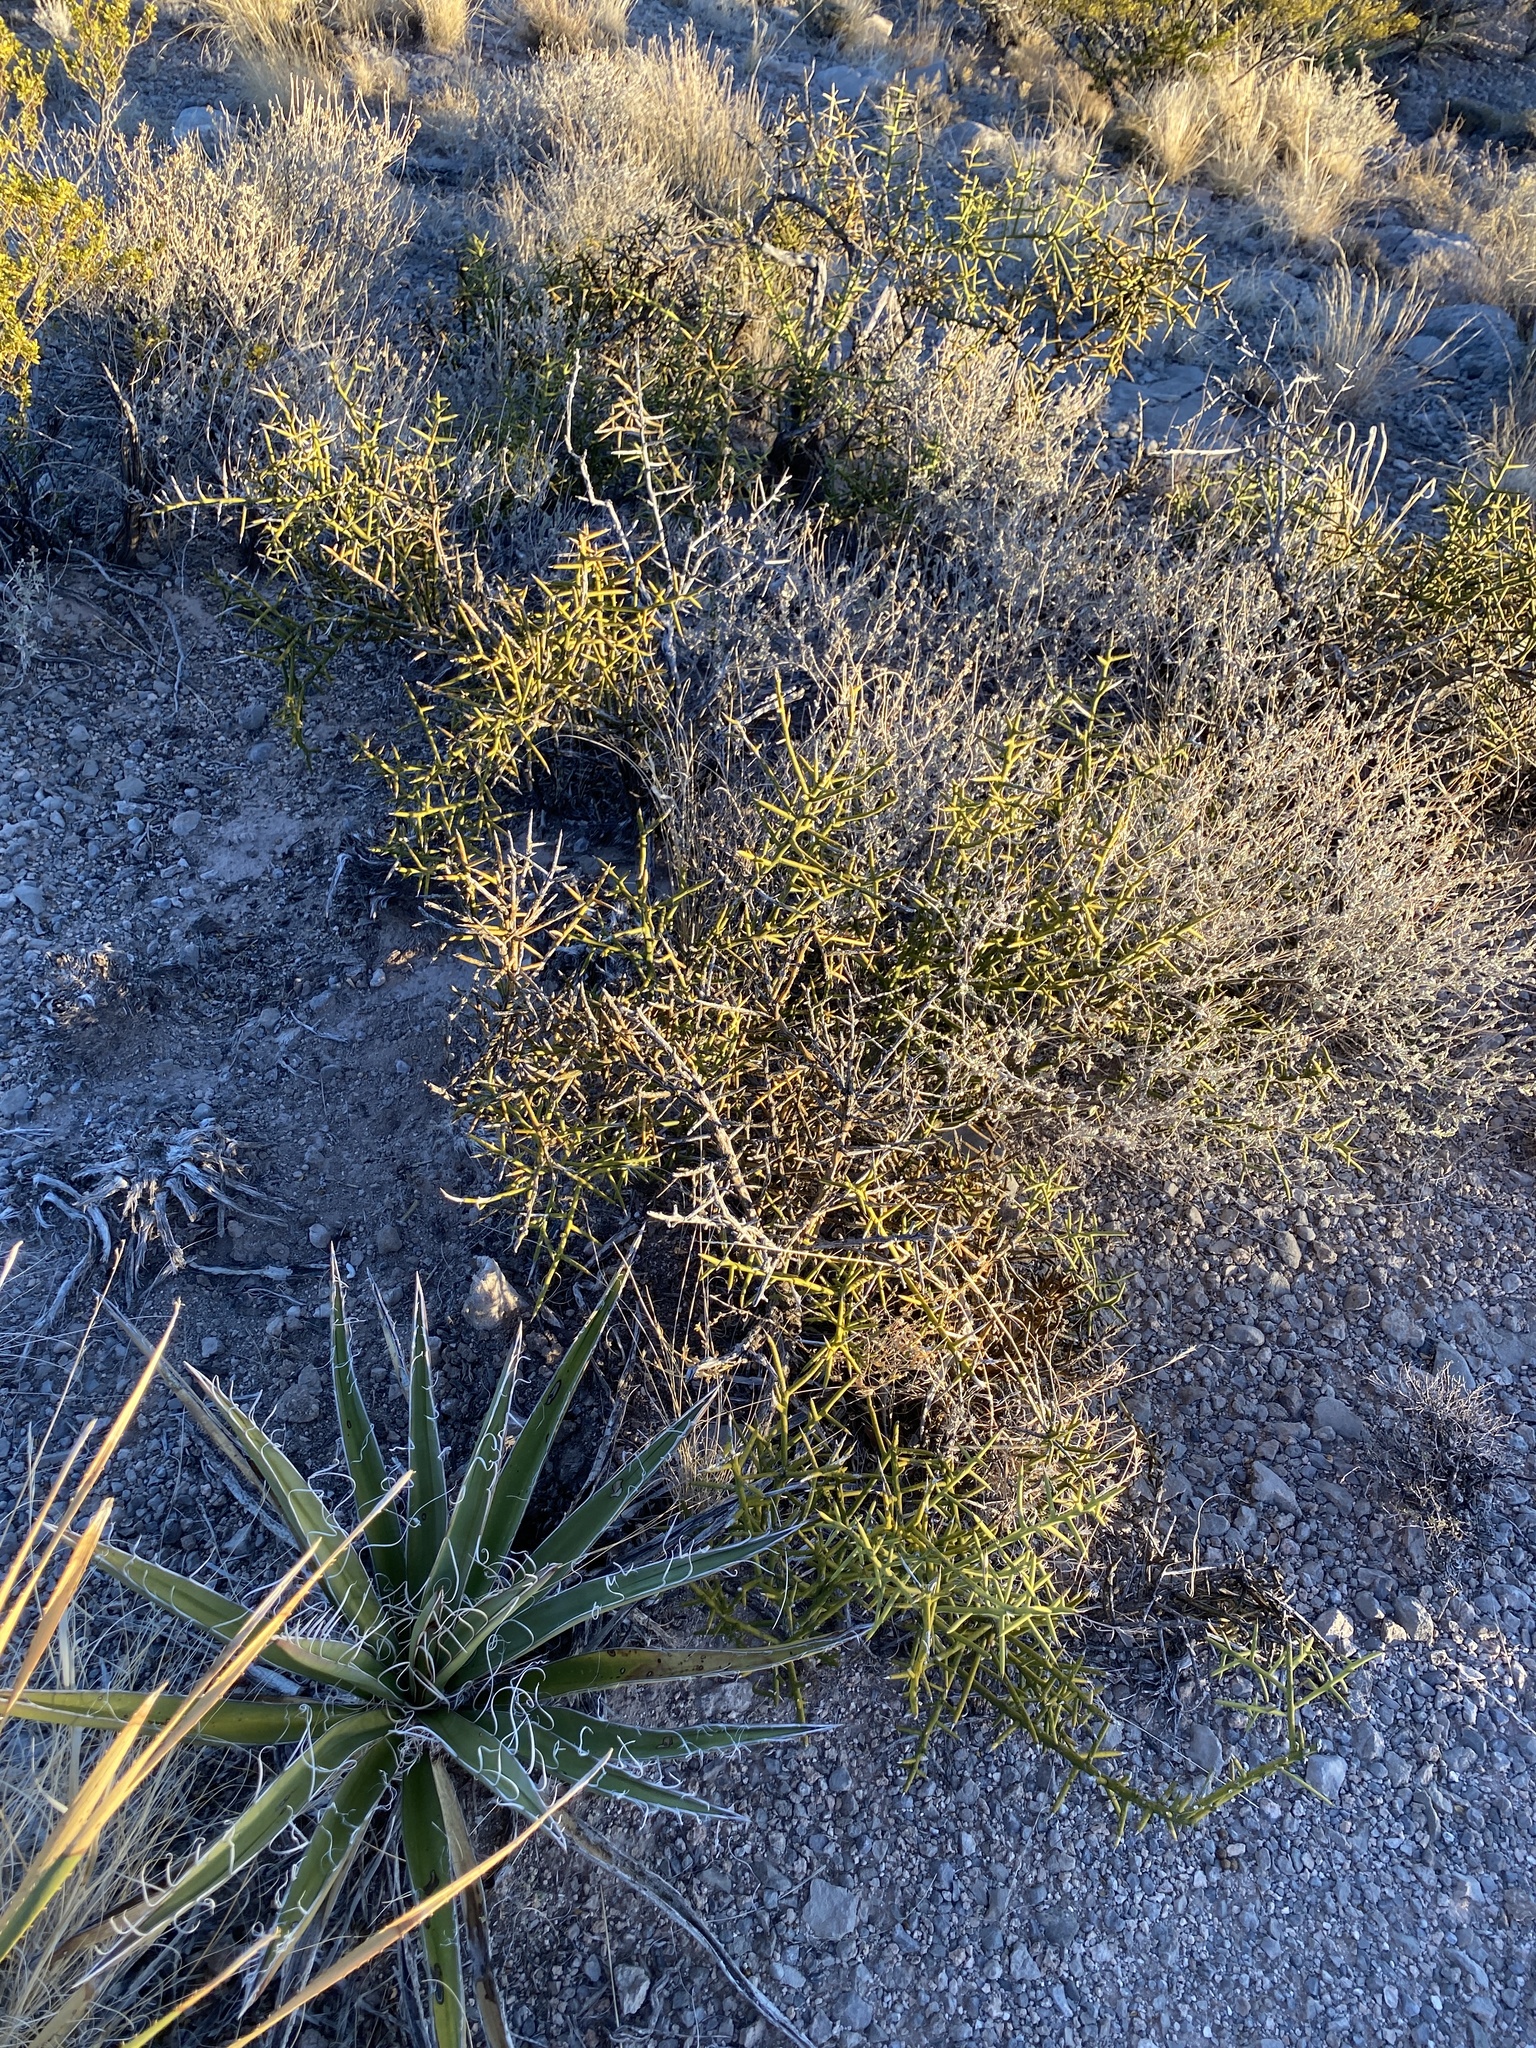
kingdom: Plantae
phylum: Tracheophyta
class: Magnoliopsida
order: Brassicales
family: Koeberliniaceae
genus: Koeberlinia
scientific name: Koeberlinia spinosa
